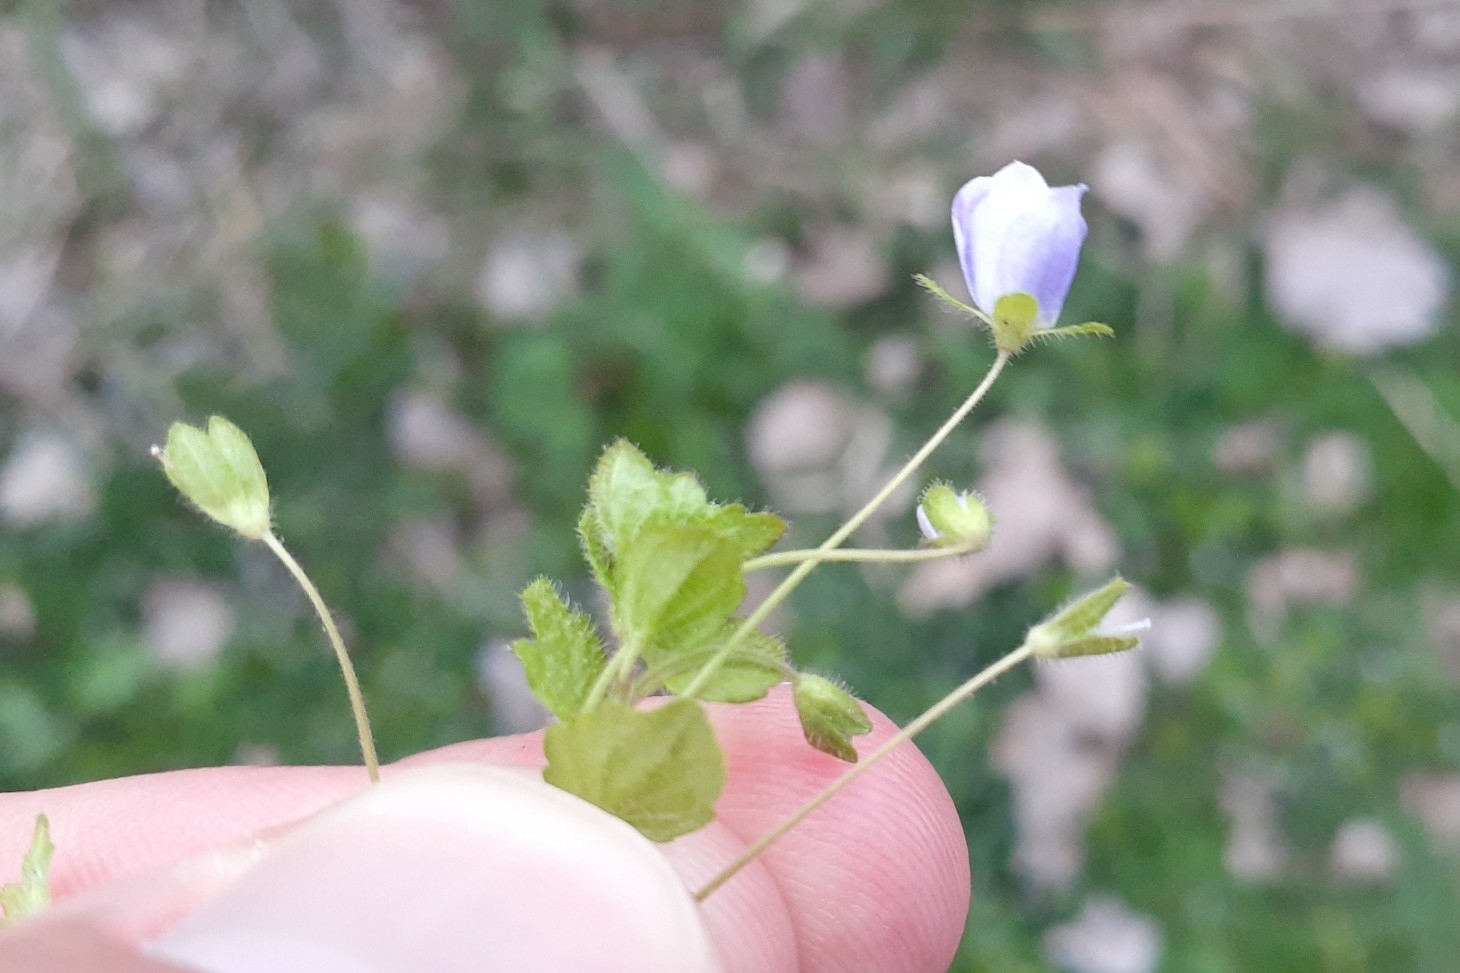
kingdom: Plantae
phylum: Tracheophyta
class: Magnoliopsida
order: Lamiales
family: Plantaginaceae
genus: Veronica
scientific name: Veronica filiformis
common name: Slender speedwell
